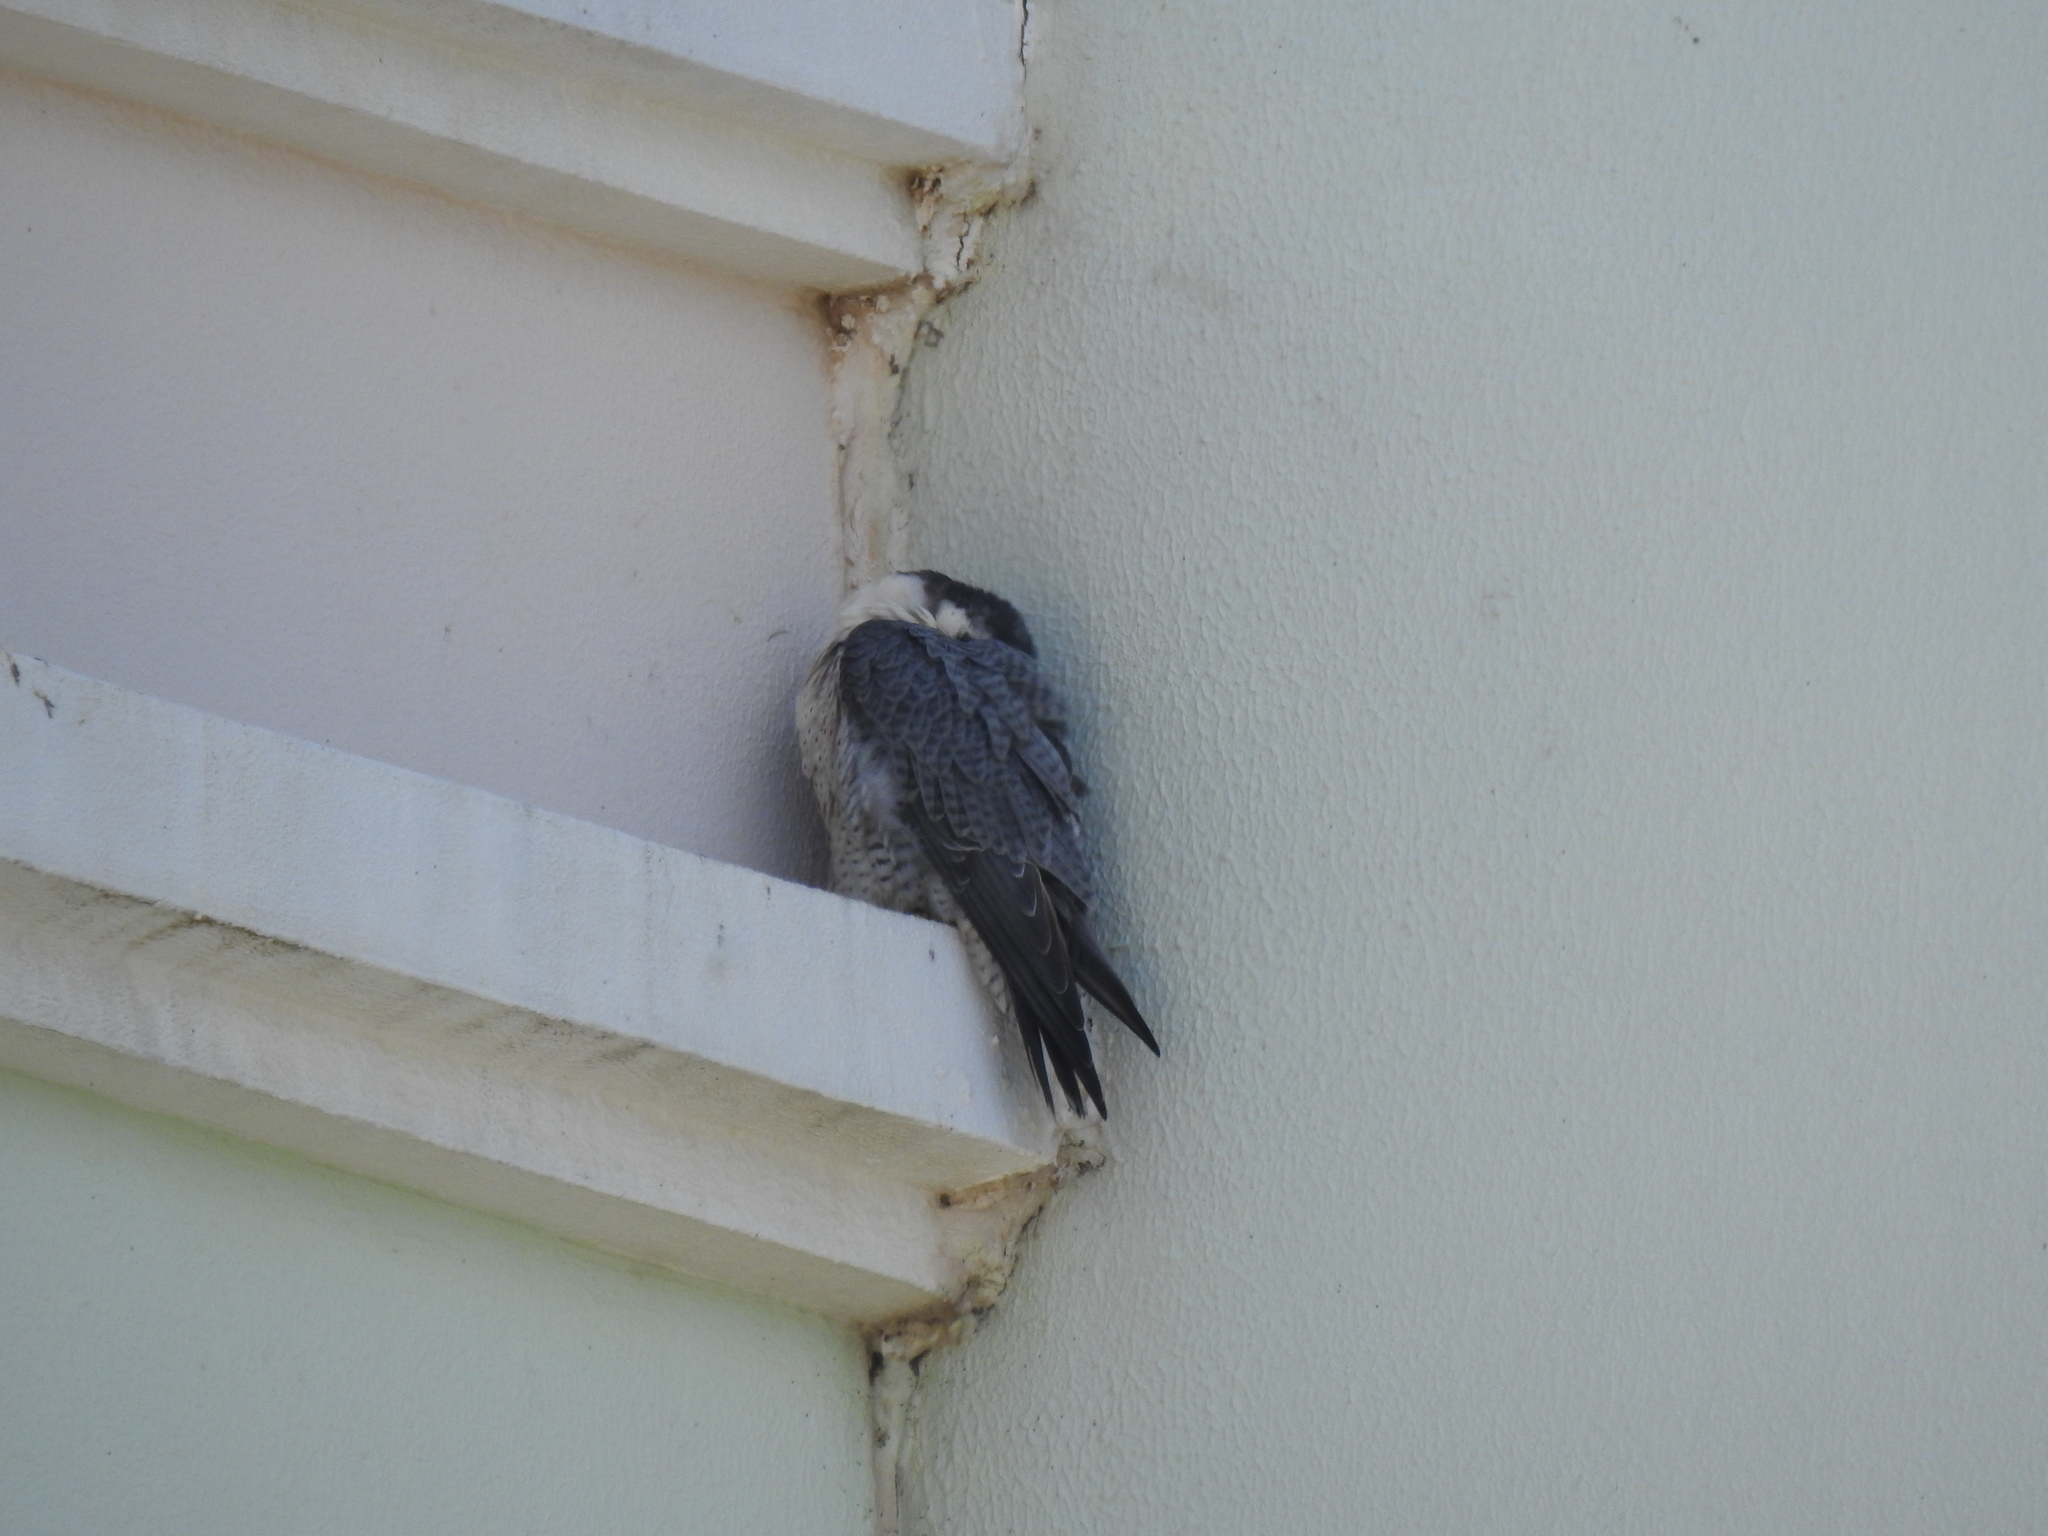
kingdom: Animalia
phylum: Chordata
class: Aves
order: Falconiformes
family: Falconidae
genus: Falco
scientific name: Falco peregrinus
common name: Peregrine falcon
